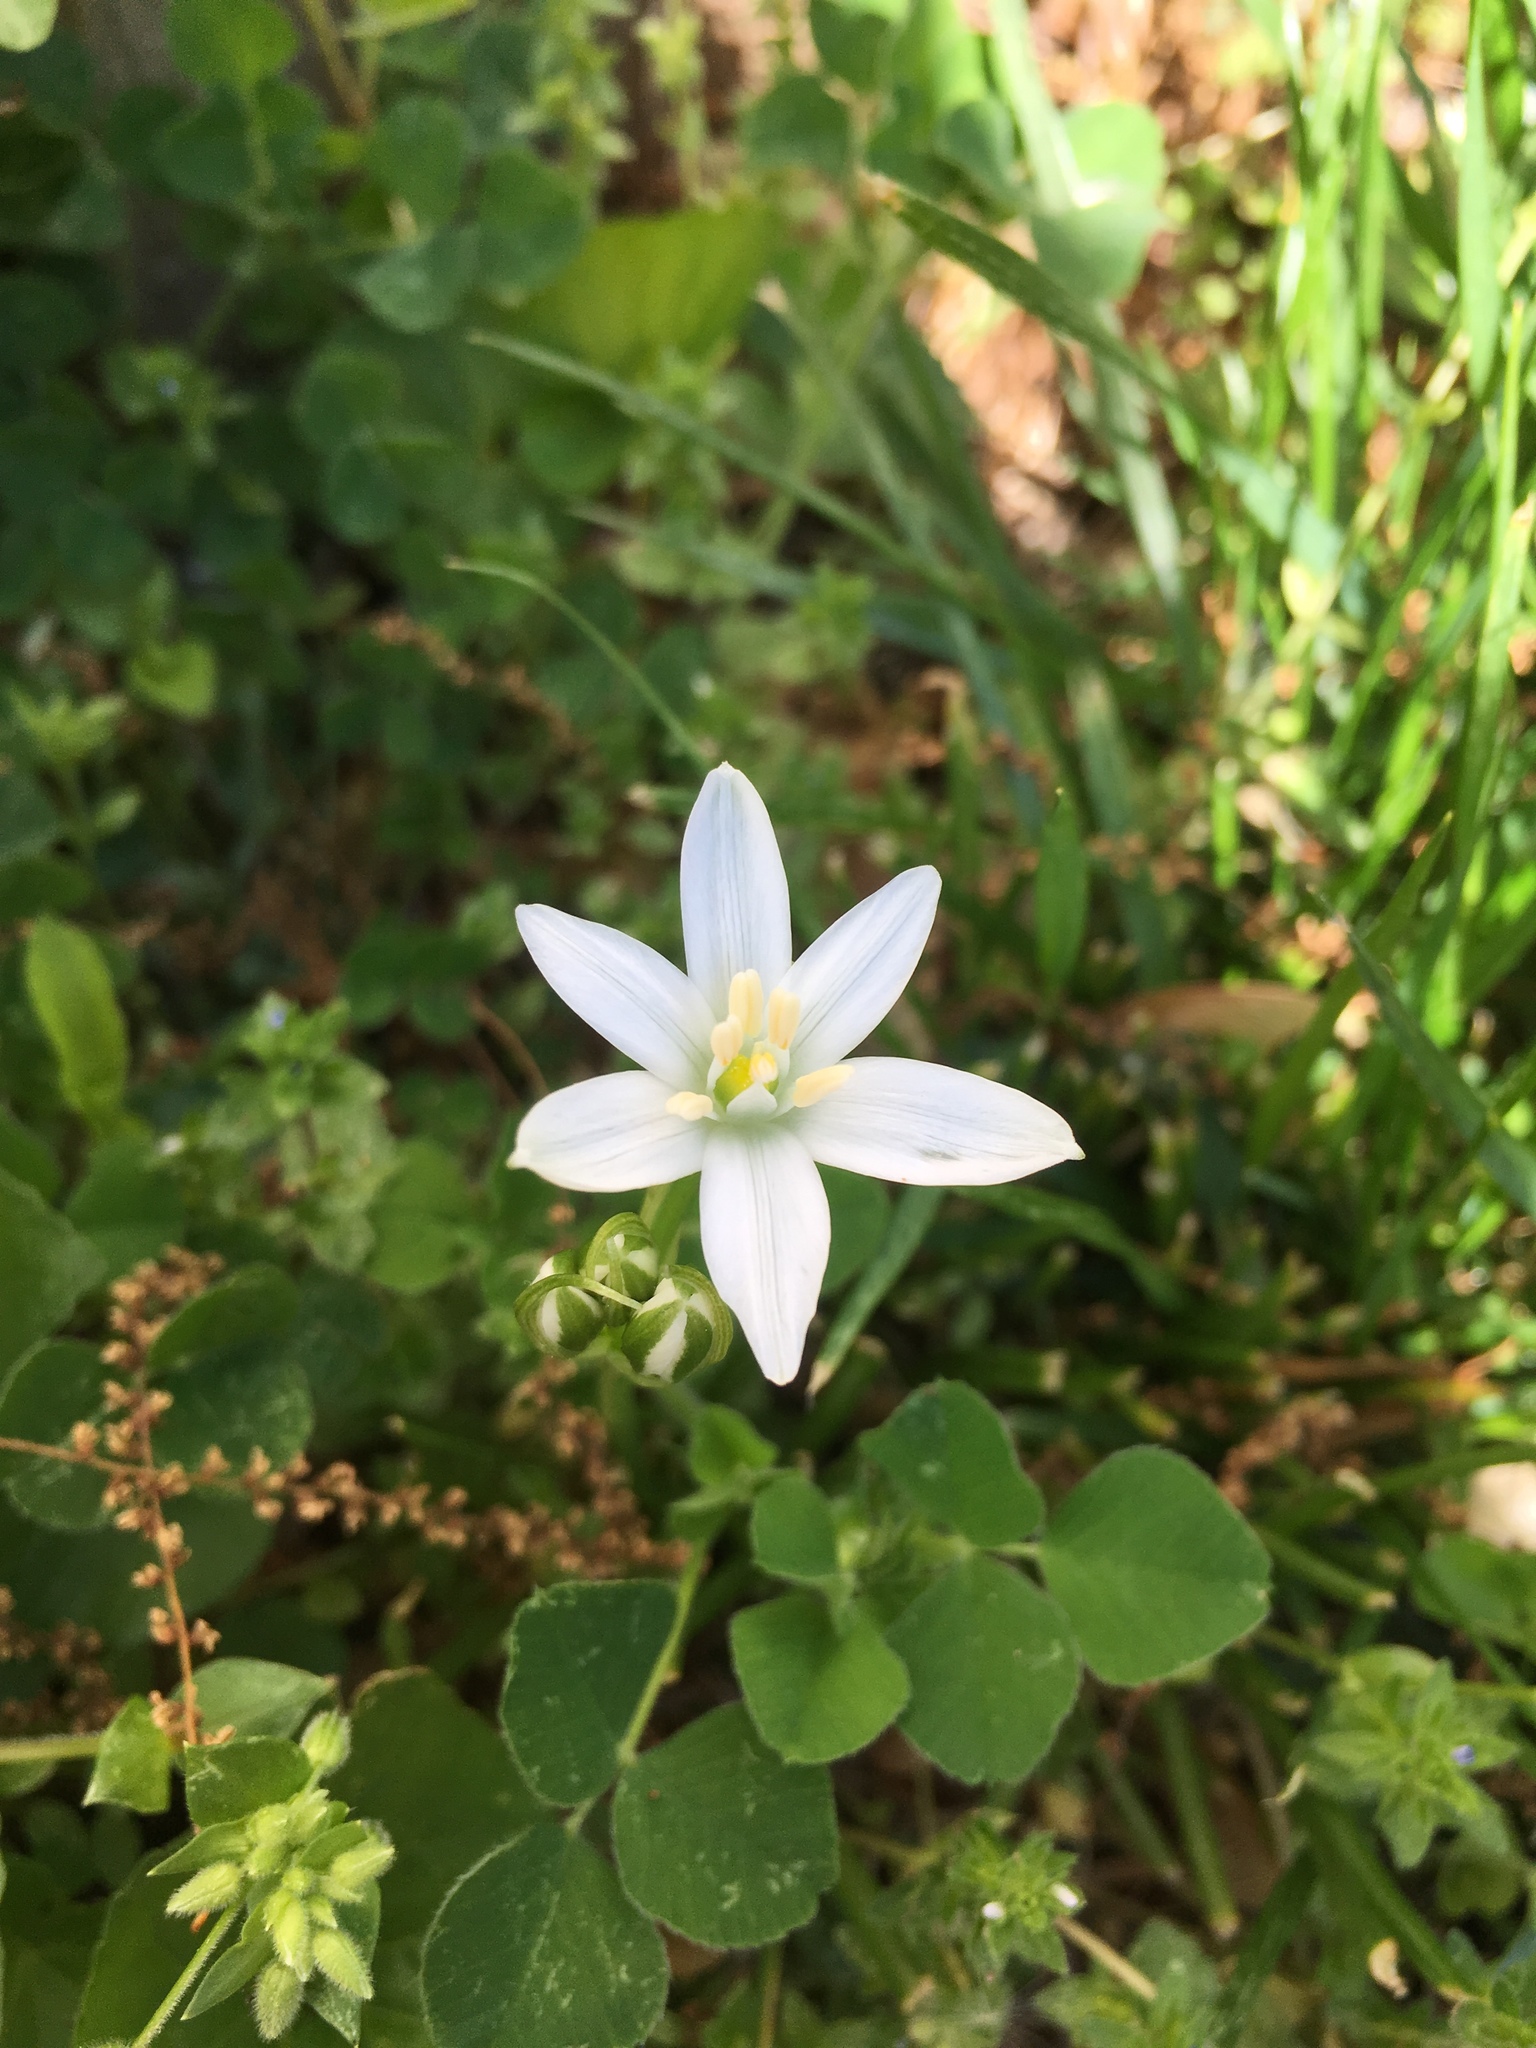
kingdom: Plantae
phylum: Tracheophyta
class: Liliopsida
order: Asparagales
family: Asparagaceae
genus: Ornithogalum
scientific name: Ornithogalum umbellatum
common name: Garden star-of-bethlehem
